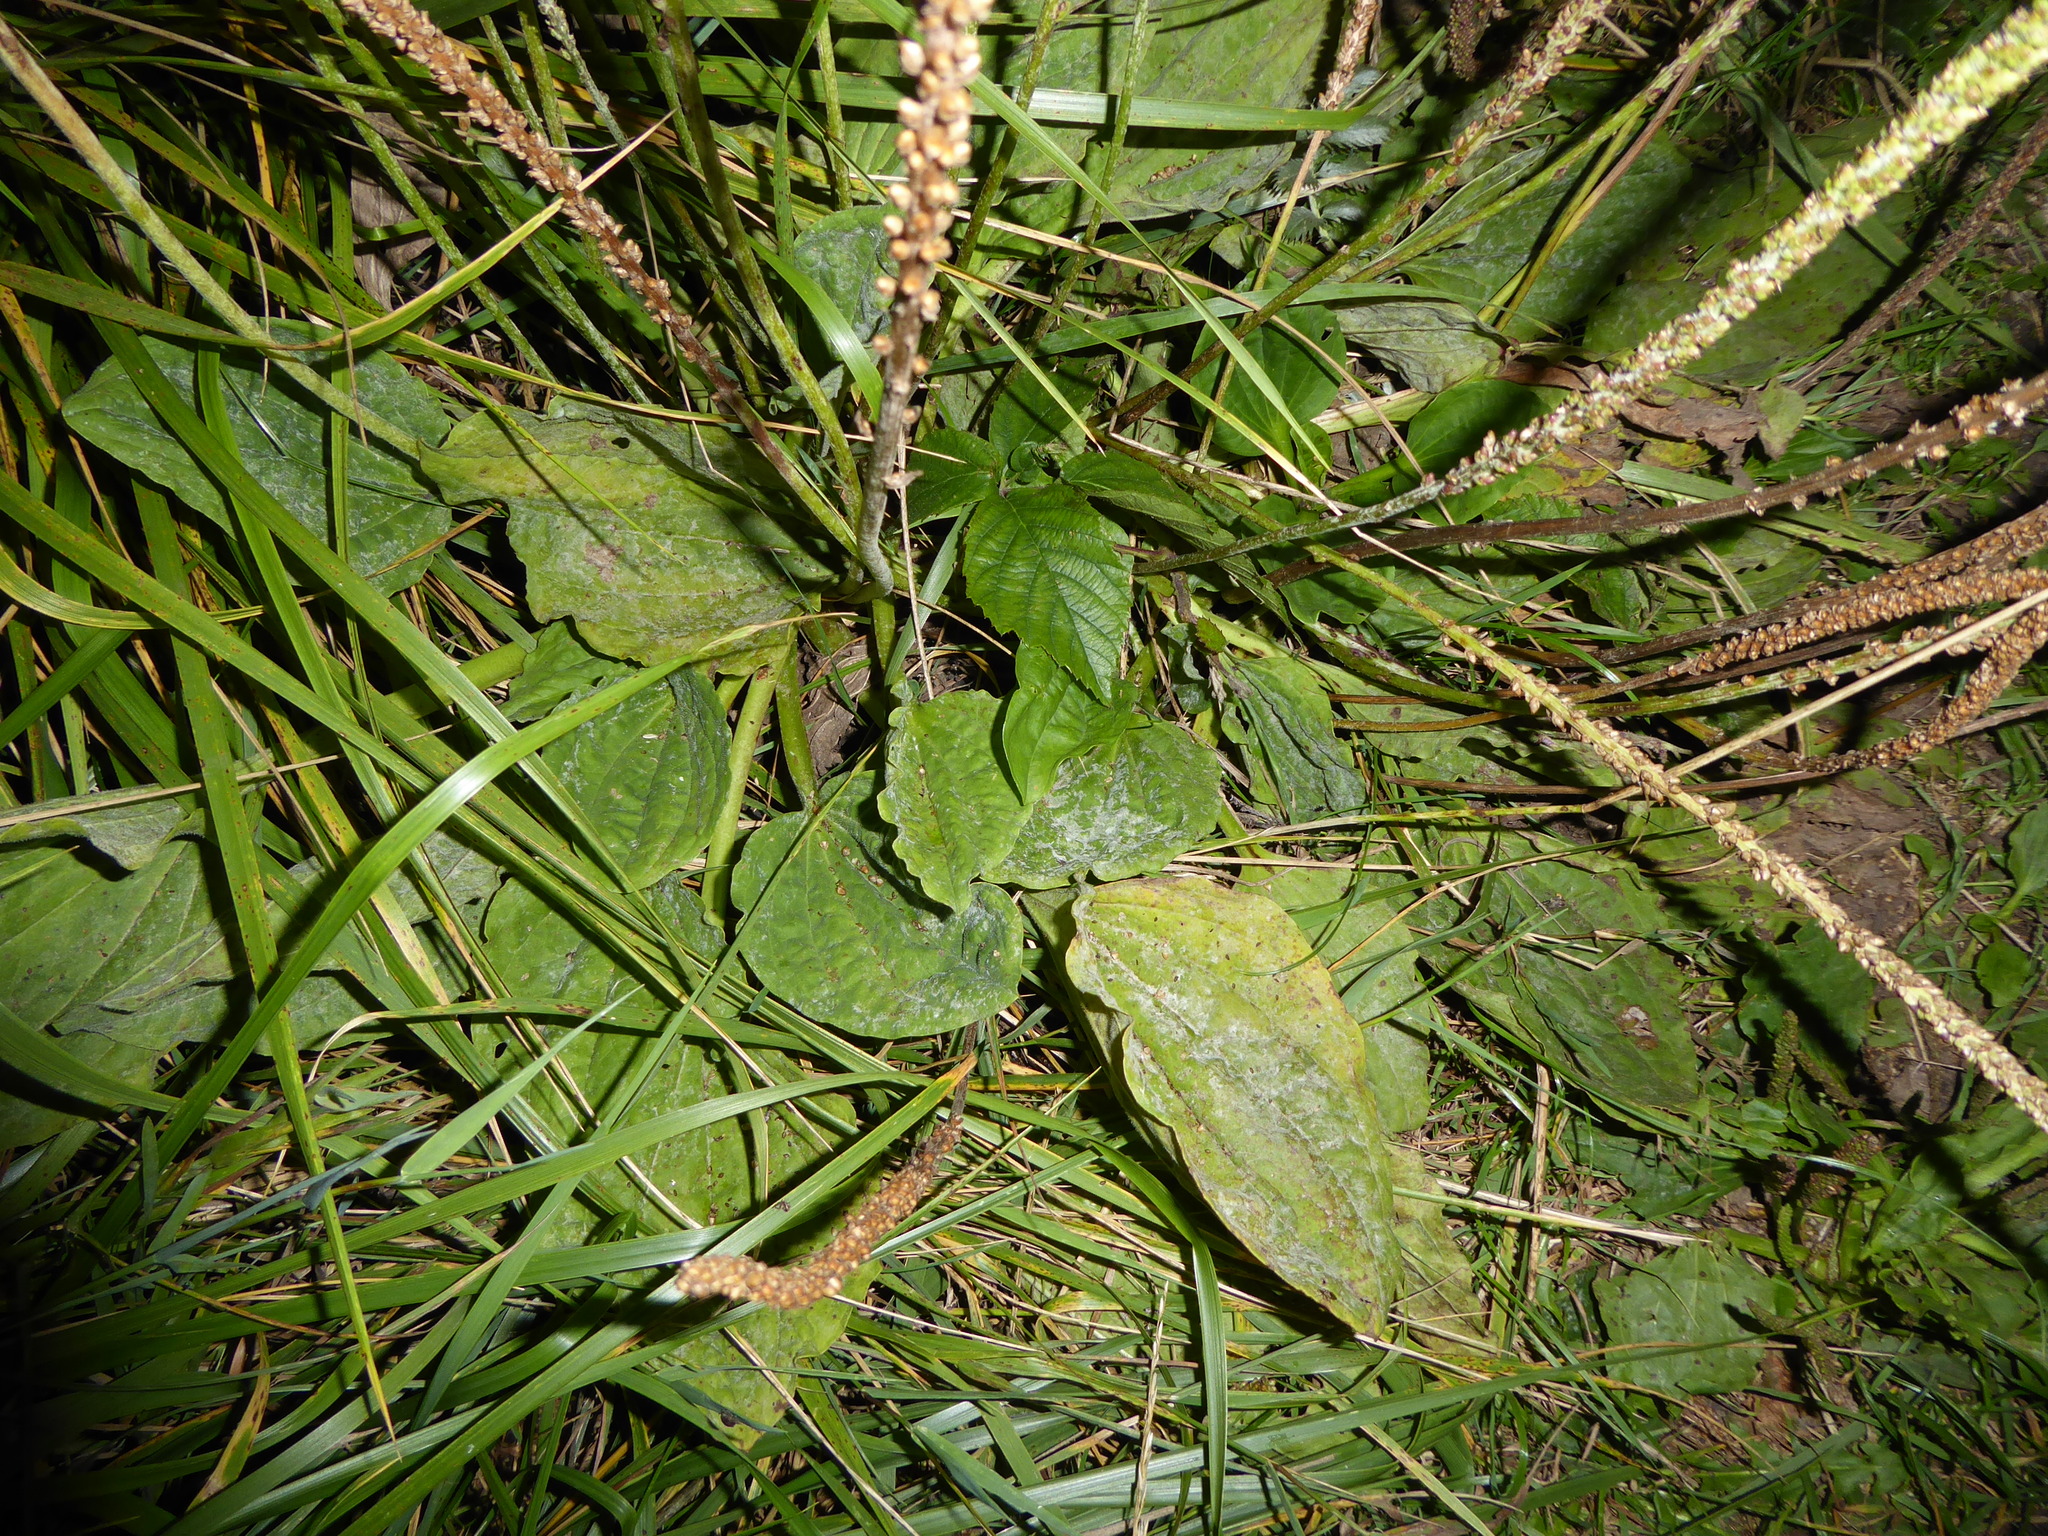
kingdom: Plantae
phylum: Tracheophyta
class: Magnoliopsida
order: Lamiales
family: Plantaginaceae
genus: Plantago
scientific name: Plantago major
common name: Common plantain
